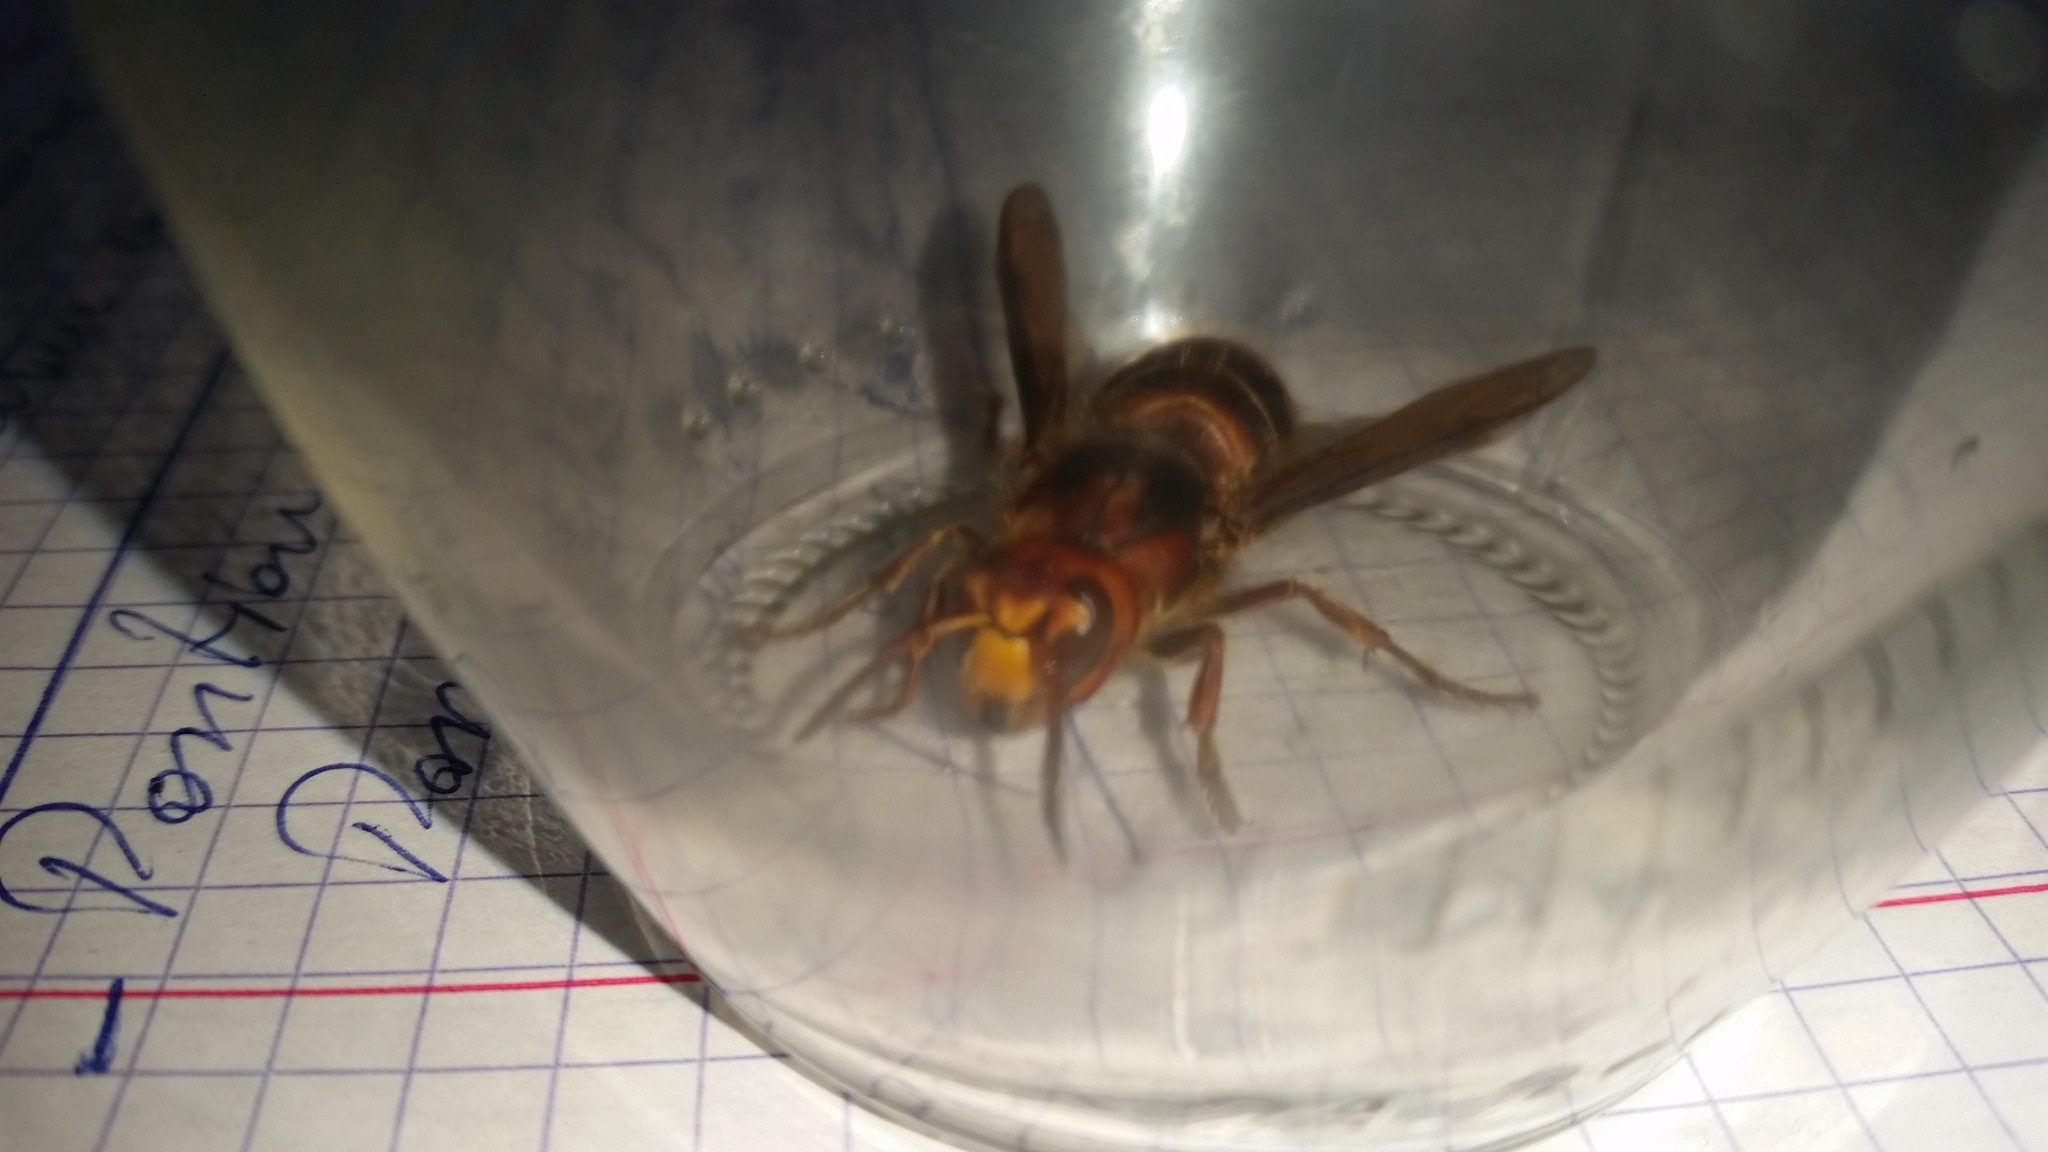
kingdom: Animalia
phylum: Arthropoda
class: Insecta
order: Hymenoptera
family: Vespidae
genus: Vespa
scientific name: Vespa crabro
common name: Hornet
